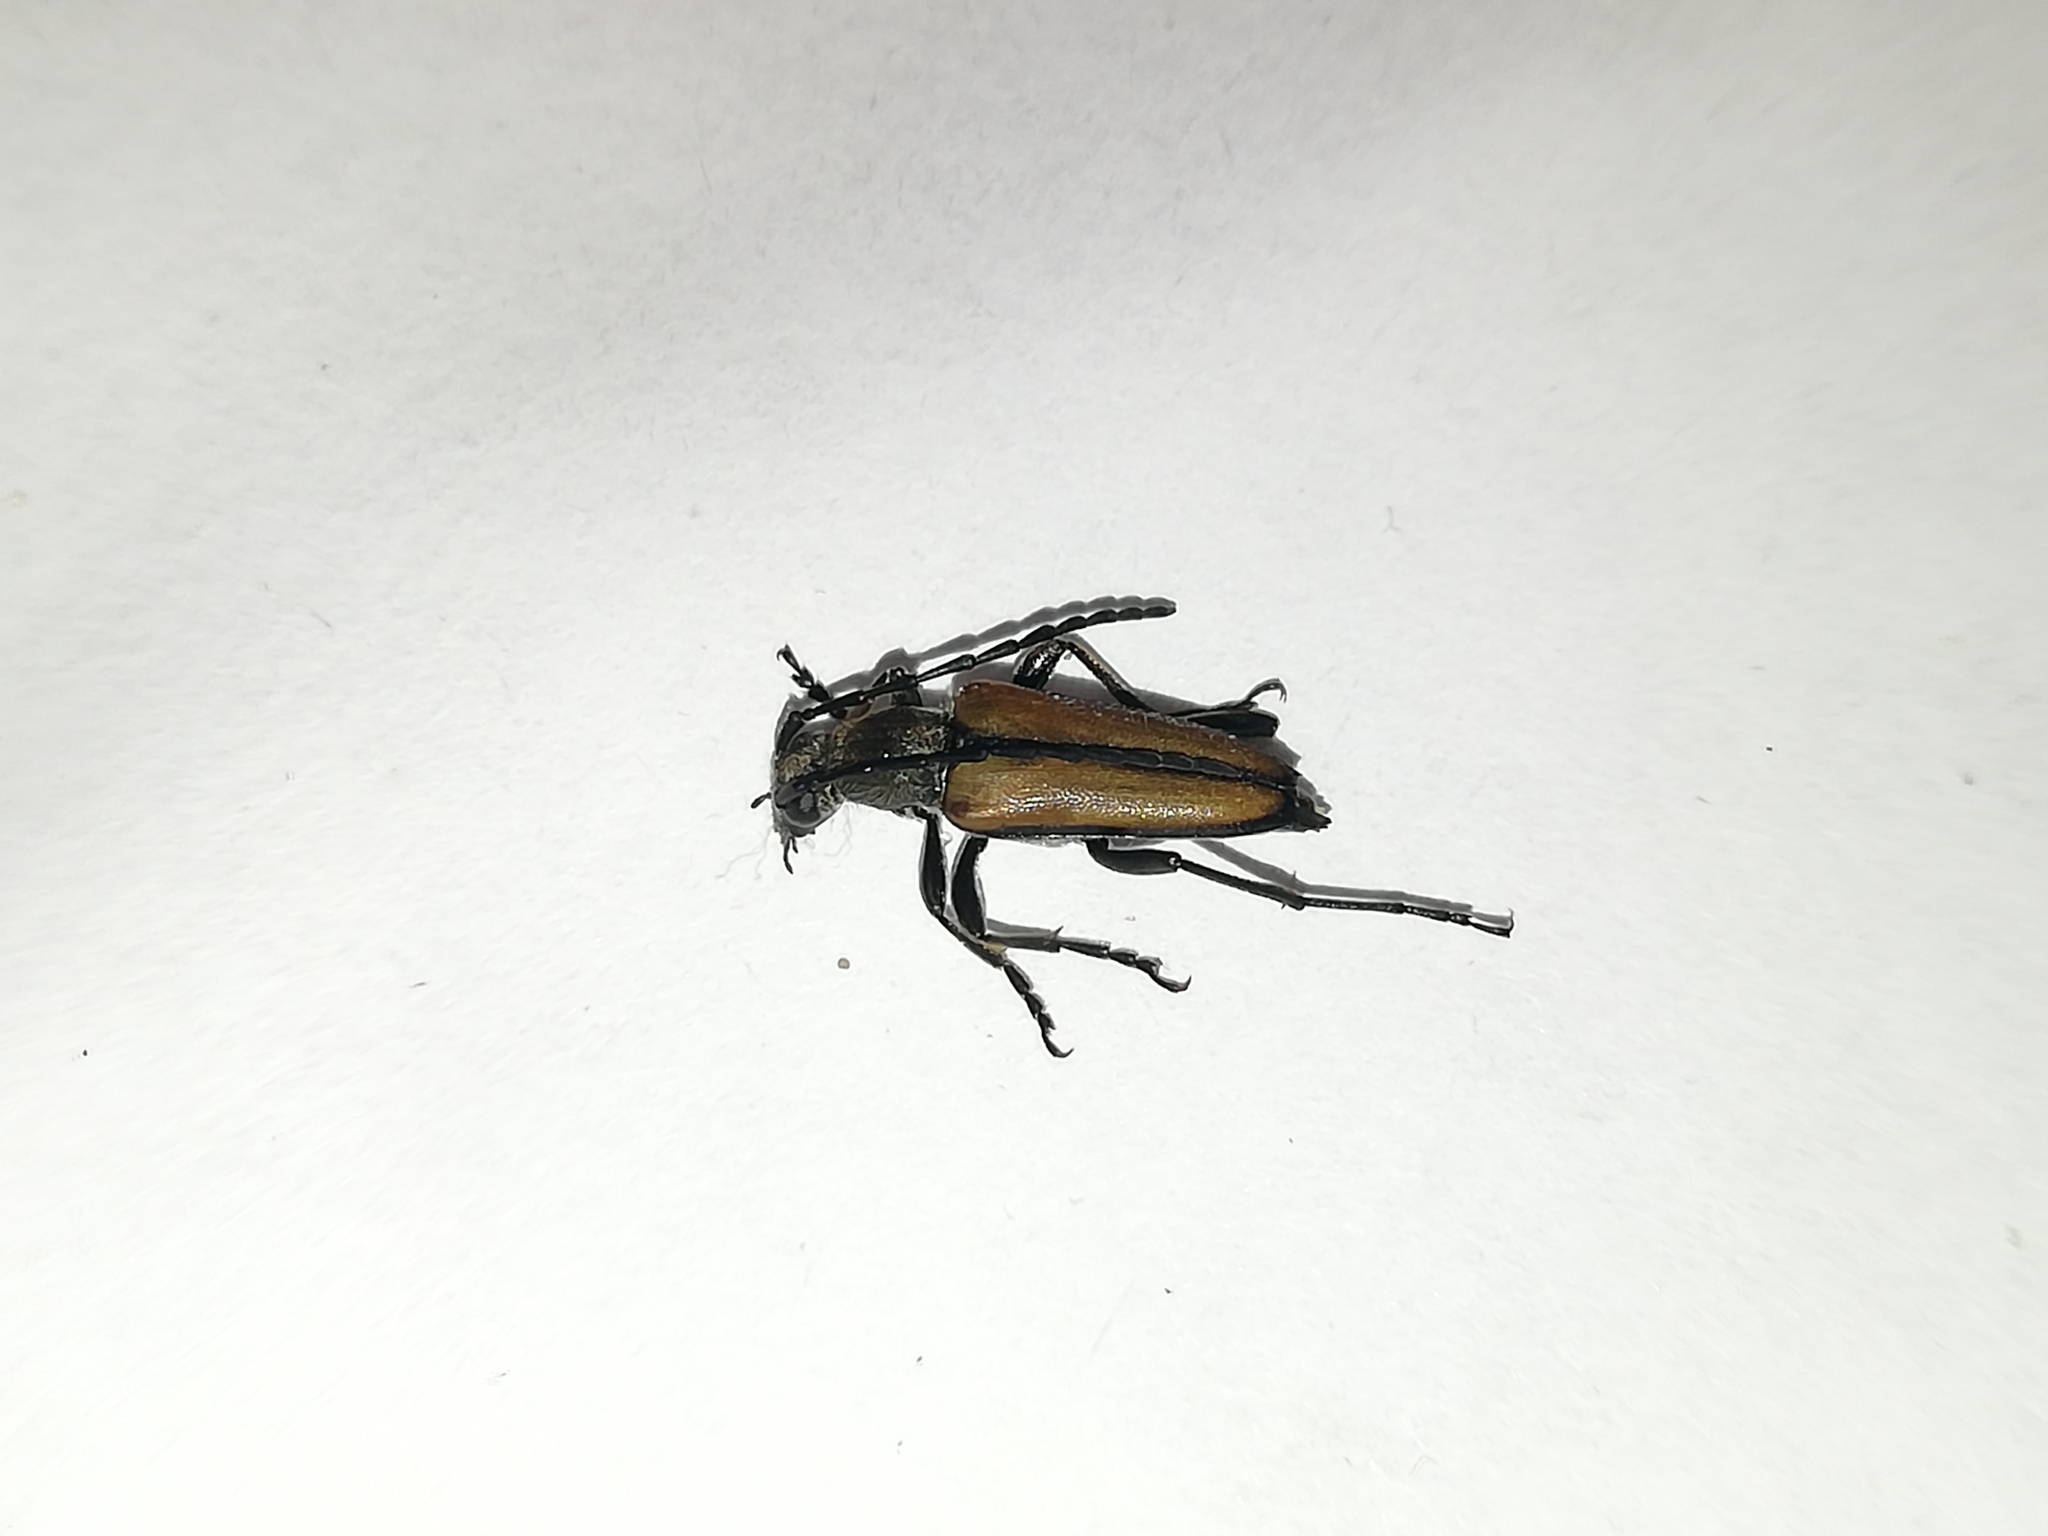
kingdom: Animalia
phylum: Arthropoda
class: Insecta
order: Coleoptera
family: Cerambycidae
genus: Anastrangalia
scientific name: Anastrangalia reyi
